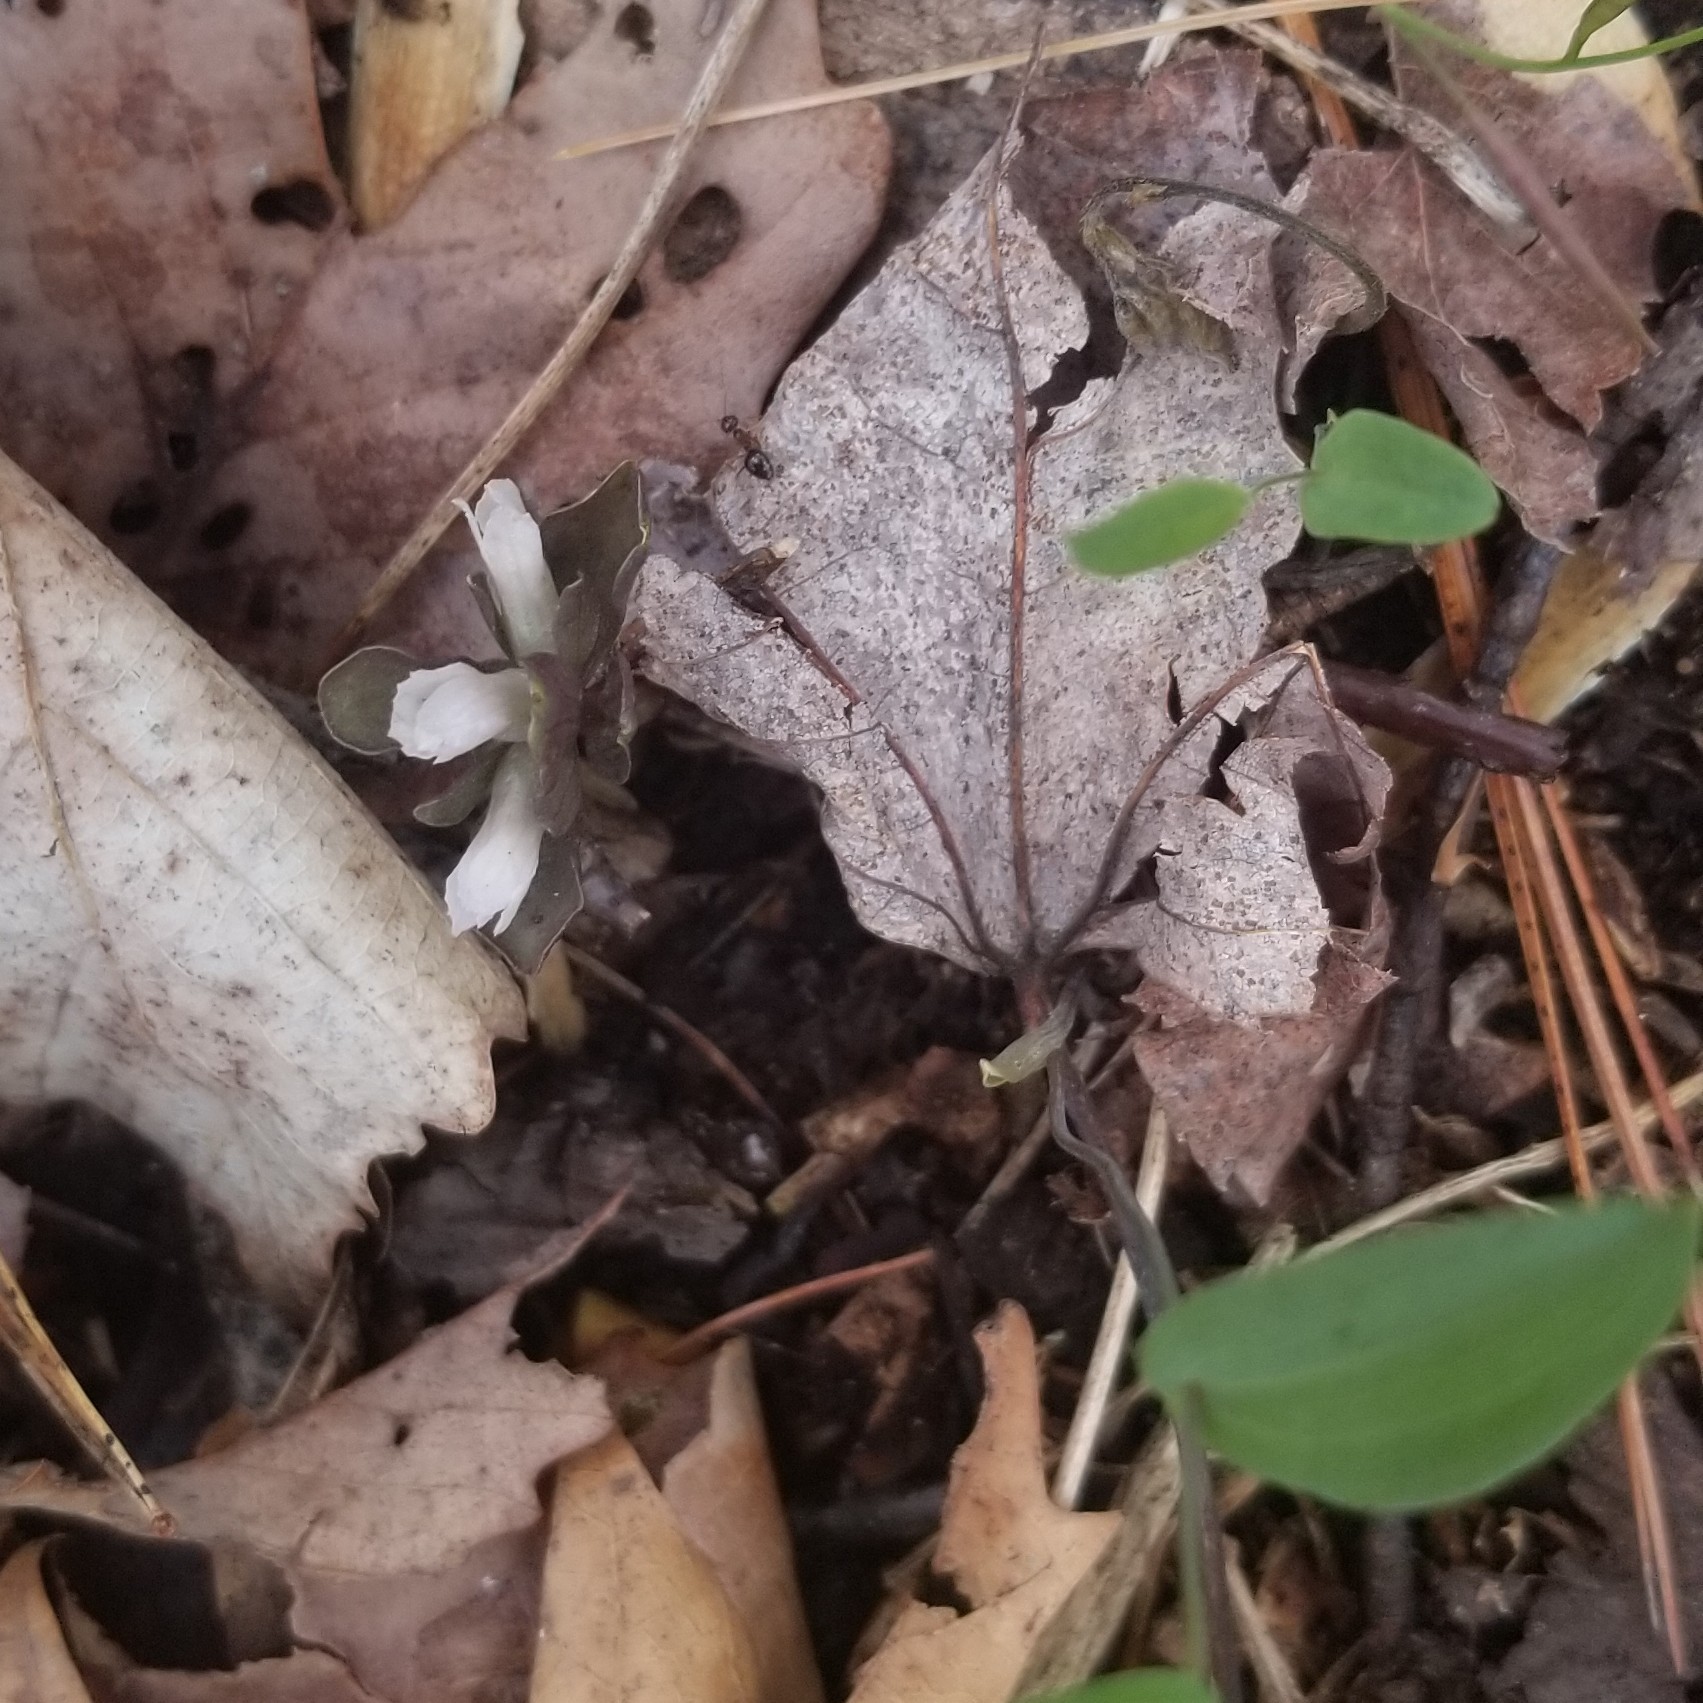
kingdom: Plantae
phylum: Tracheophyta
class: Magnoliopsida
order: Gentianales
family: Gentianaceae
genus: Obolaria
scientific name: Obolaria virginica
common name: Pennywort
